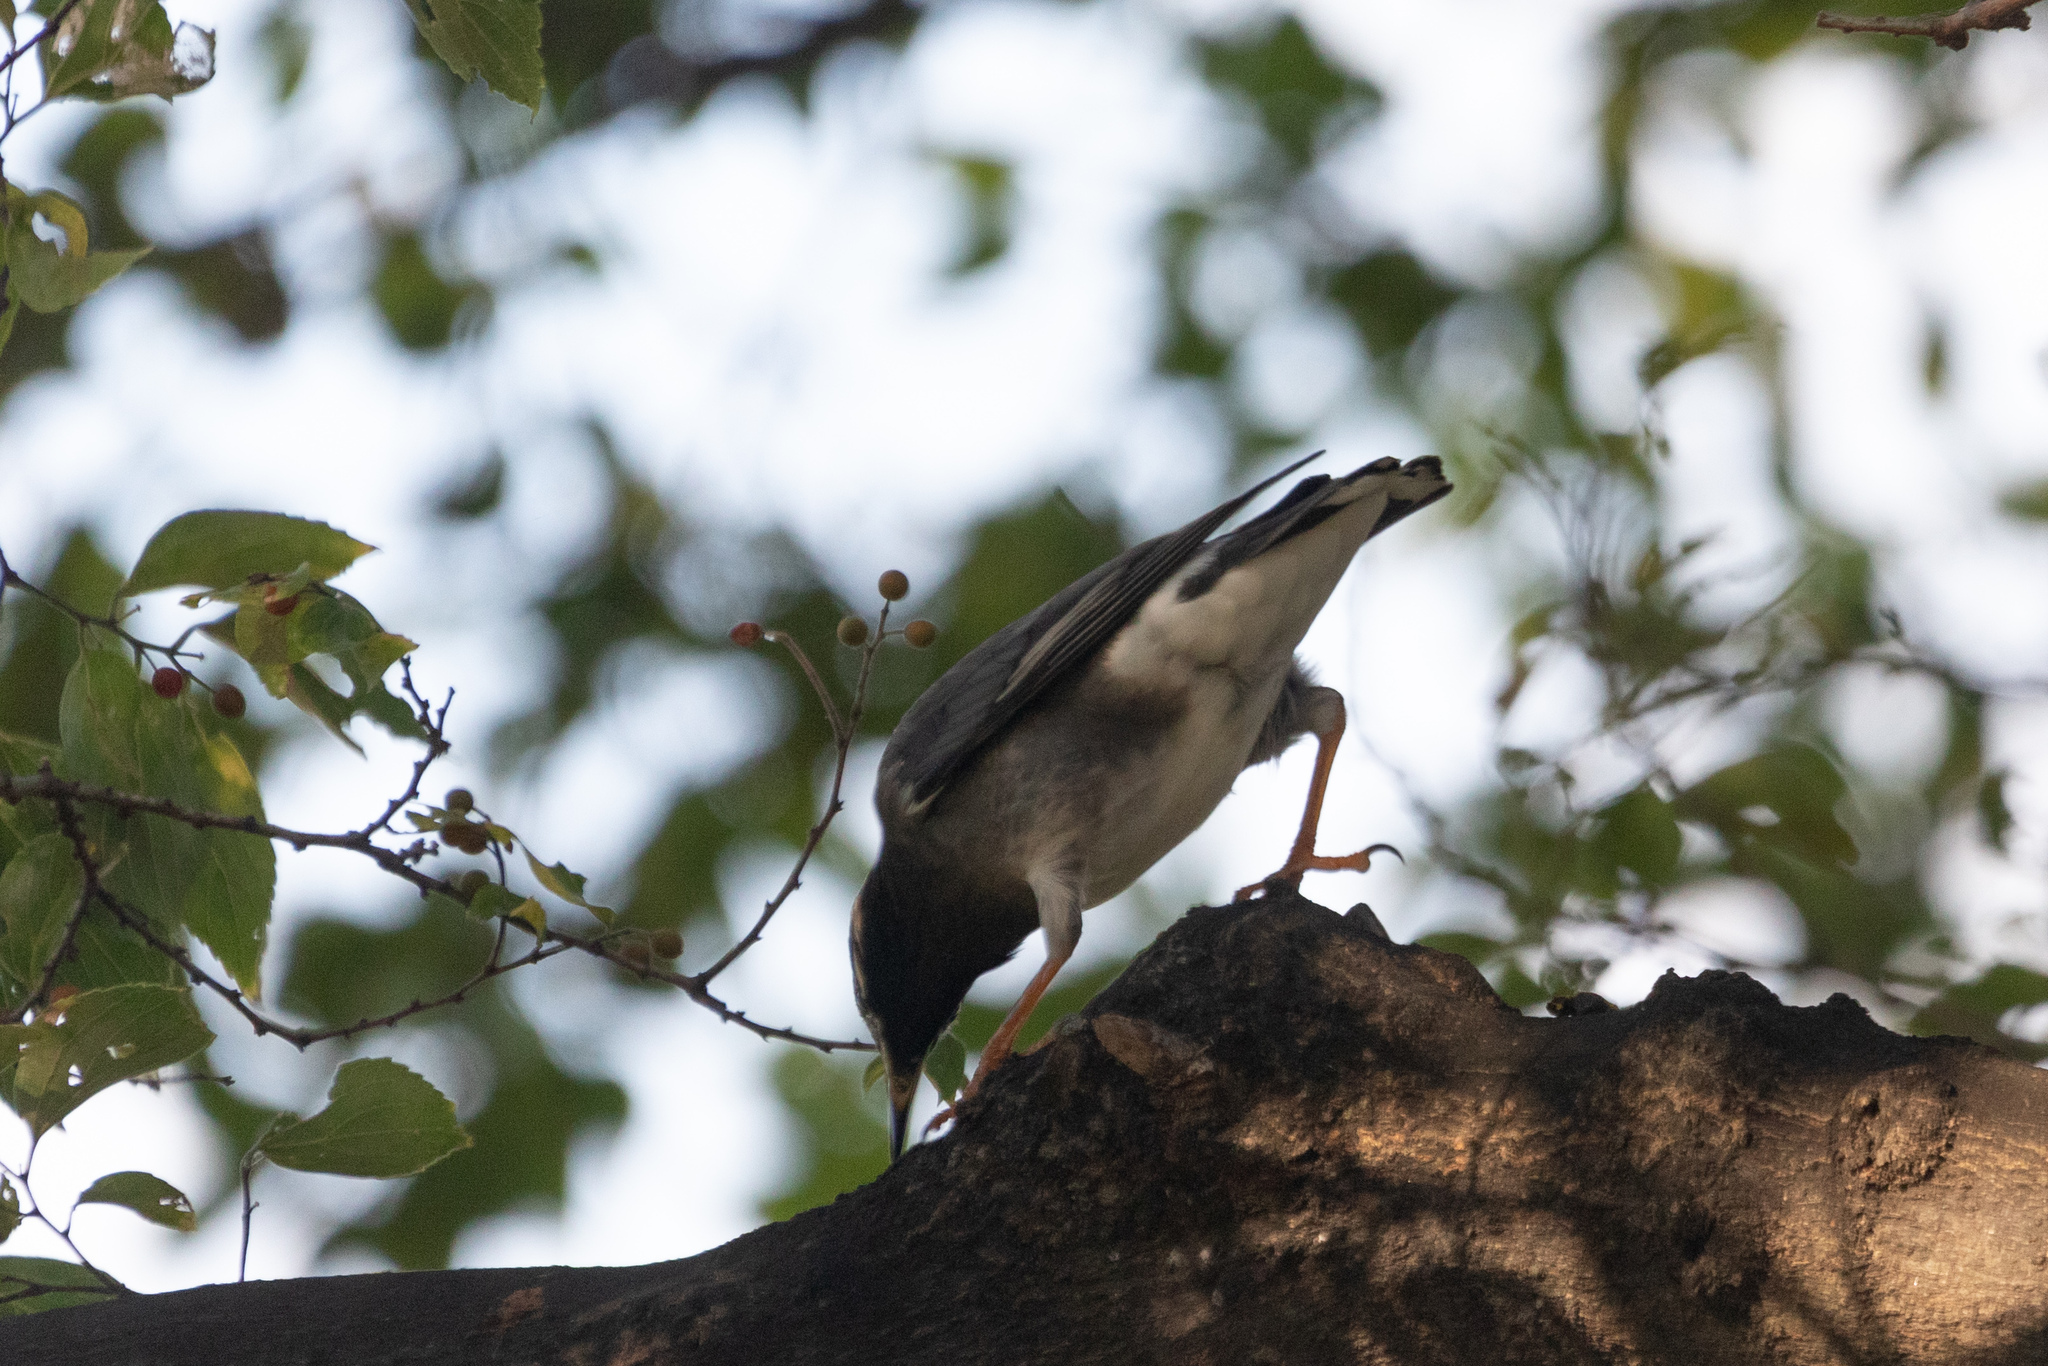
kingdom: Animalia
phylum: Chordata
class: Aves
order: Passeriformes
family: Sturnidae
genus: Spodiopsar
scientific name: Spodiopsar cineraceus
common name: White-cheeked starling
